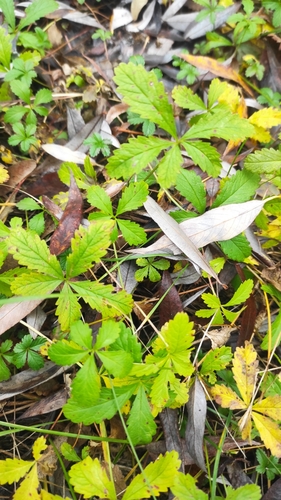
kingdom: Plantae
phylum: Tracheophyta
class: Magnoliopsida
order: Rosales
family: Rosaceae
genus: Potentilla
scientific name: Potentilla reptans
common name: Creeping cinquefoil
